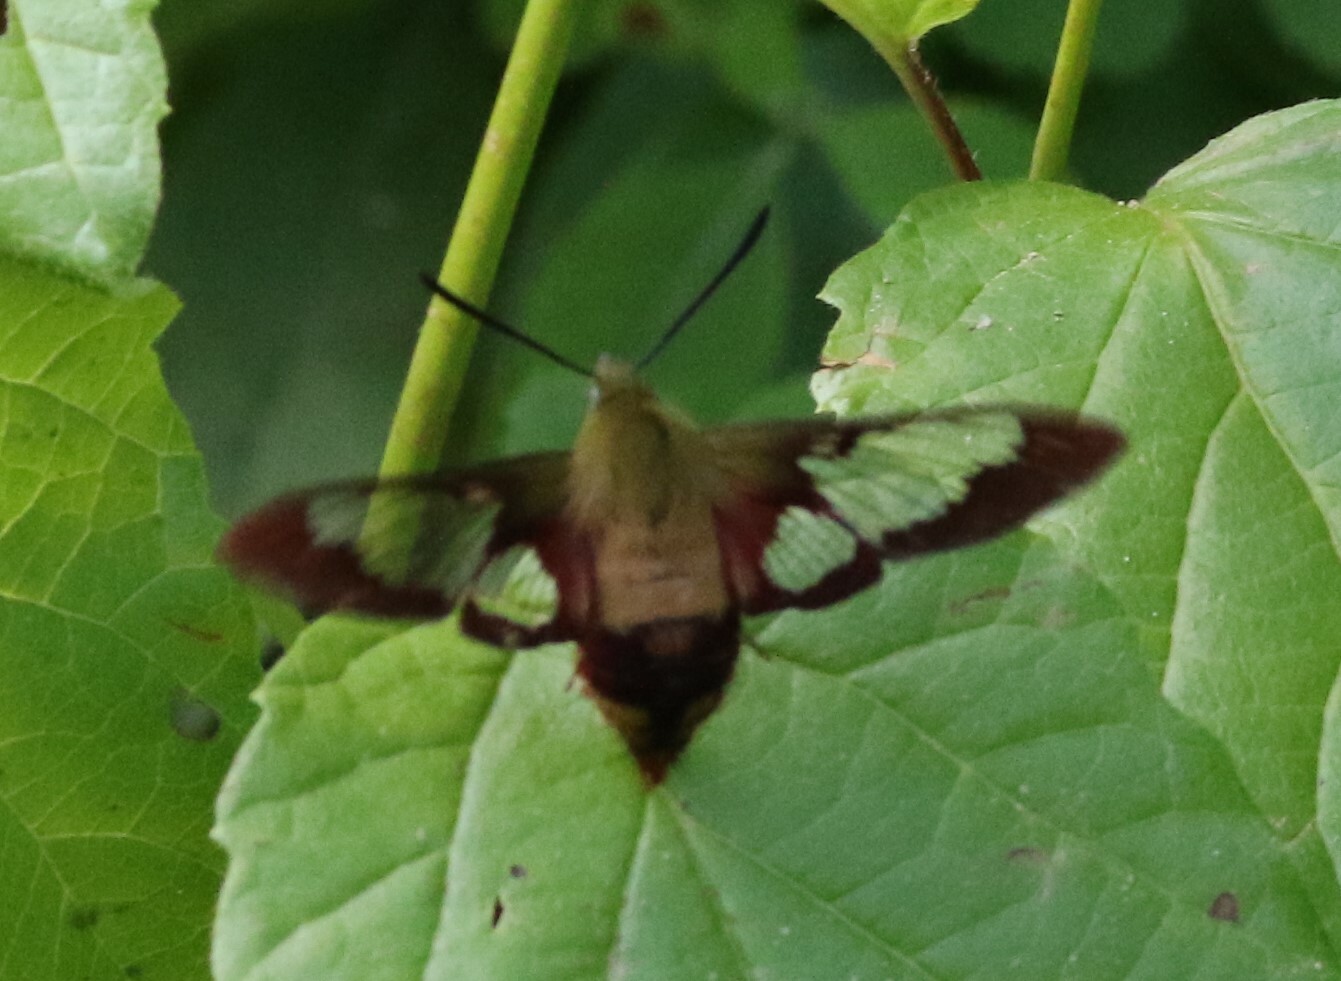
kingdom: Animalia
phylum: Arthropoda
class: Insecta
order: Lepidoptera
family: Sphingidae
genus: Hemaris
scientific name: Hemaris thysbe
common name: Common clear-wing
